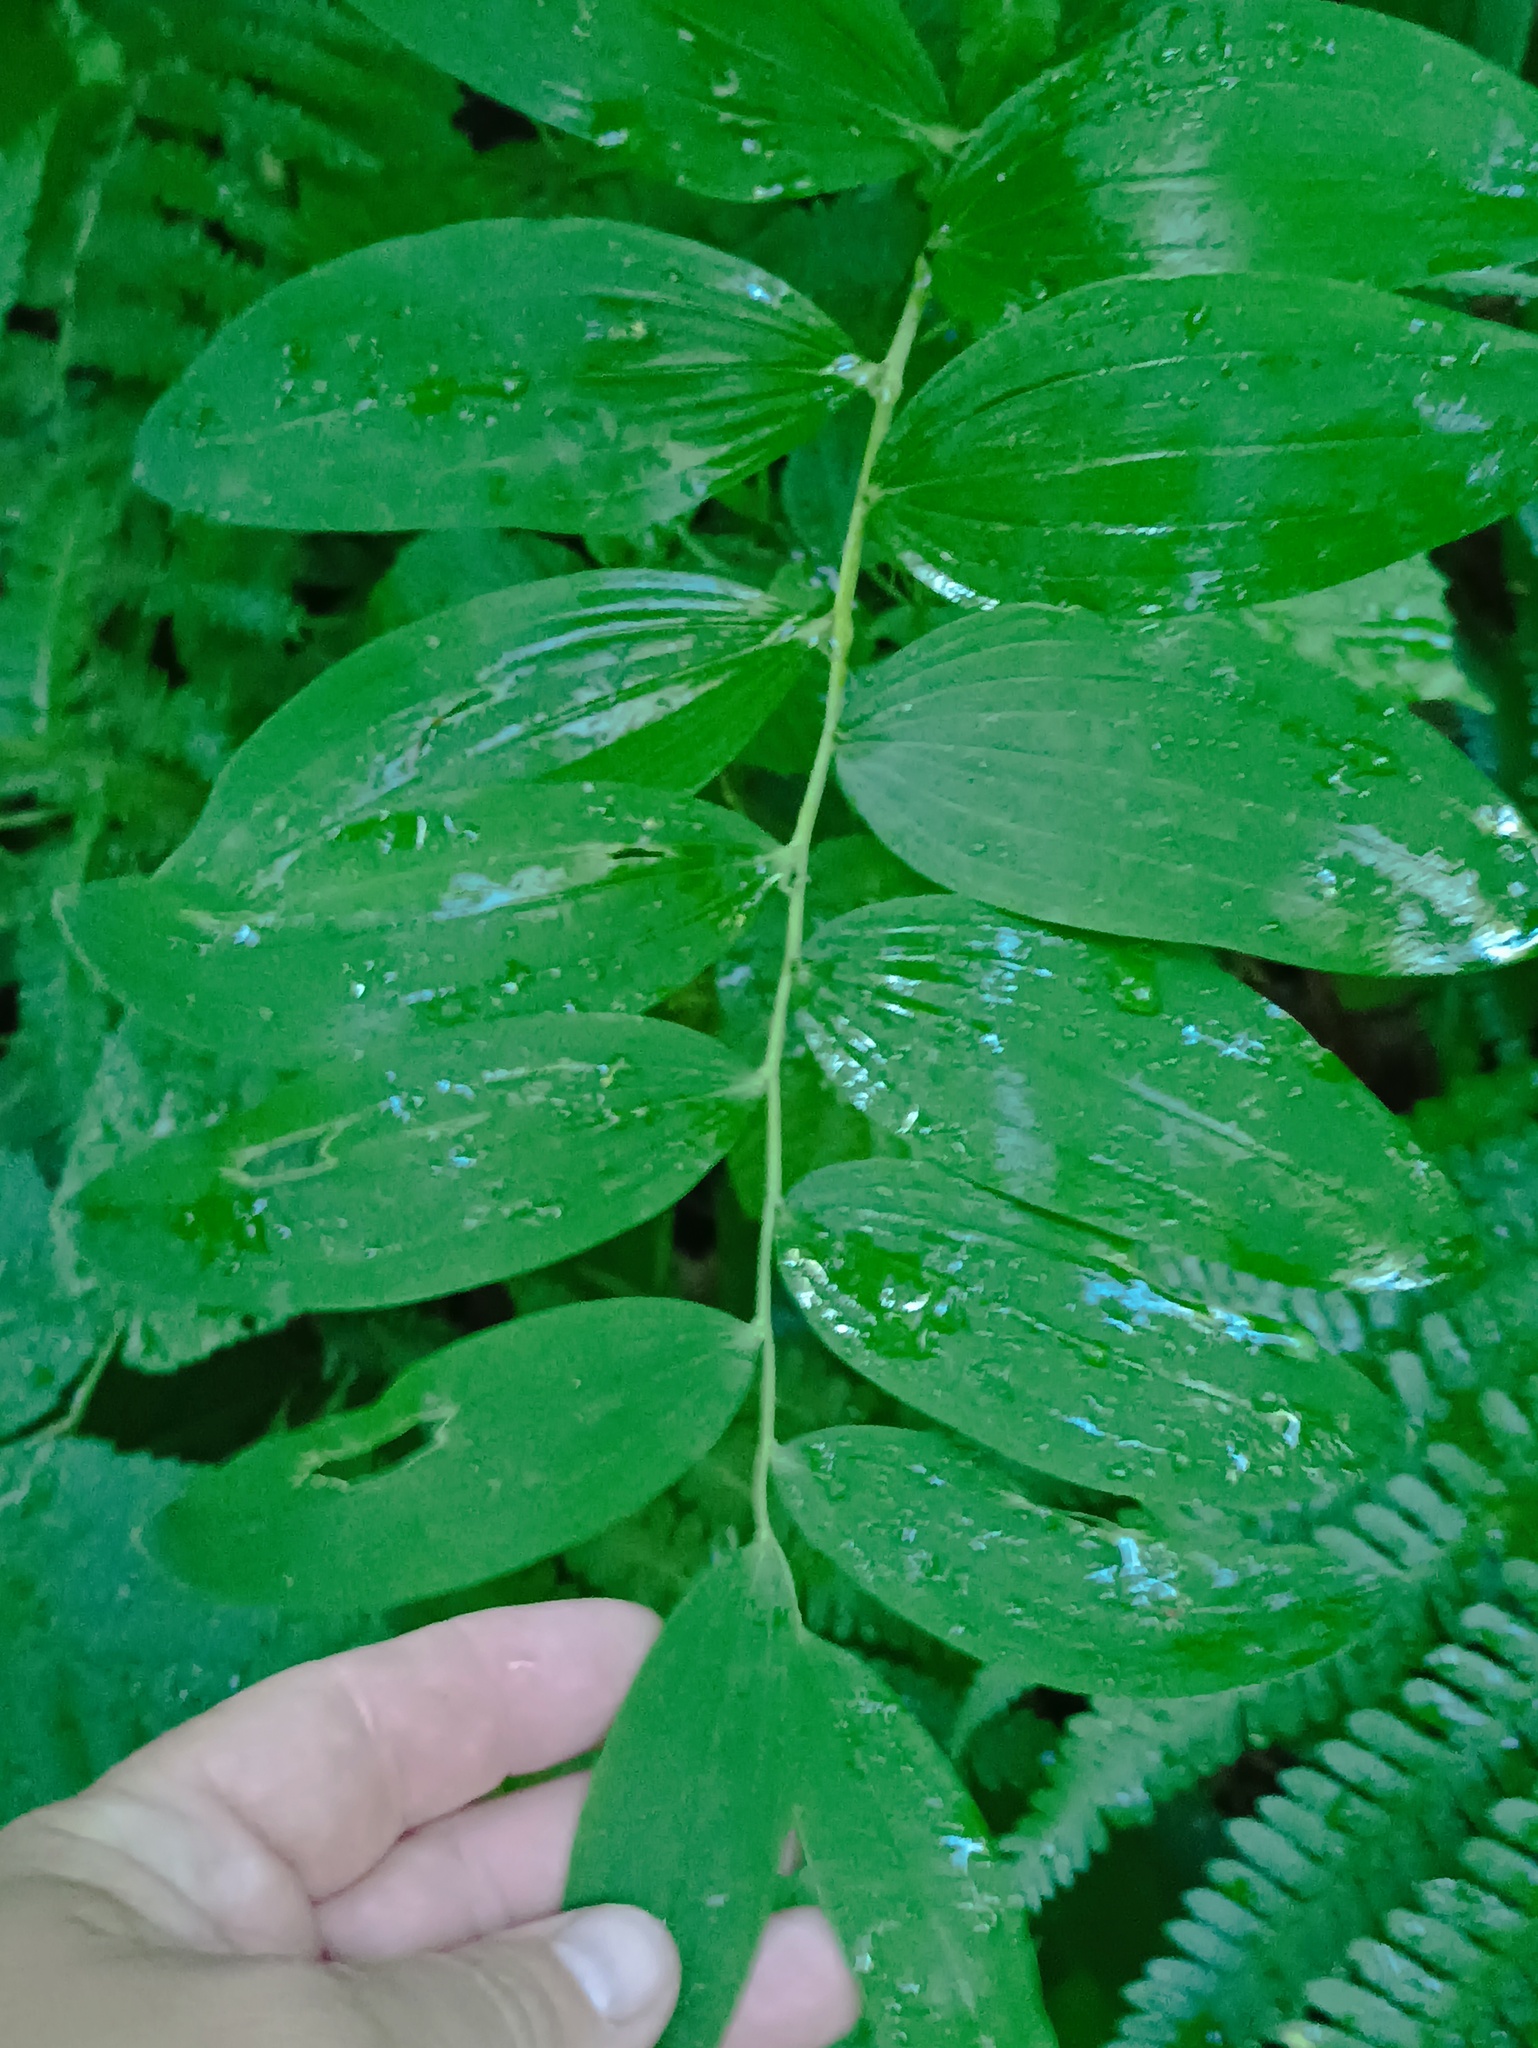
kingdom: Plantae
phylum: Tracheophyta
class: Liliopsida
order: Asparagales
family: Asparagaceae
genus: Polygonatum
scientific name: Polygonatum multiflorum
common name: Solomon's-seal
